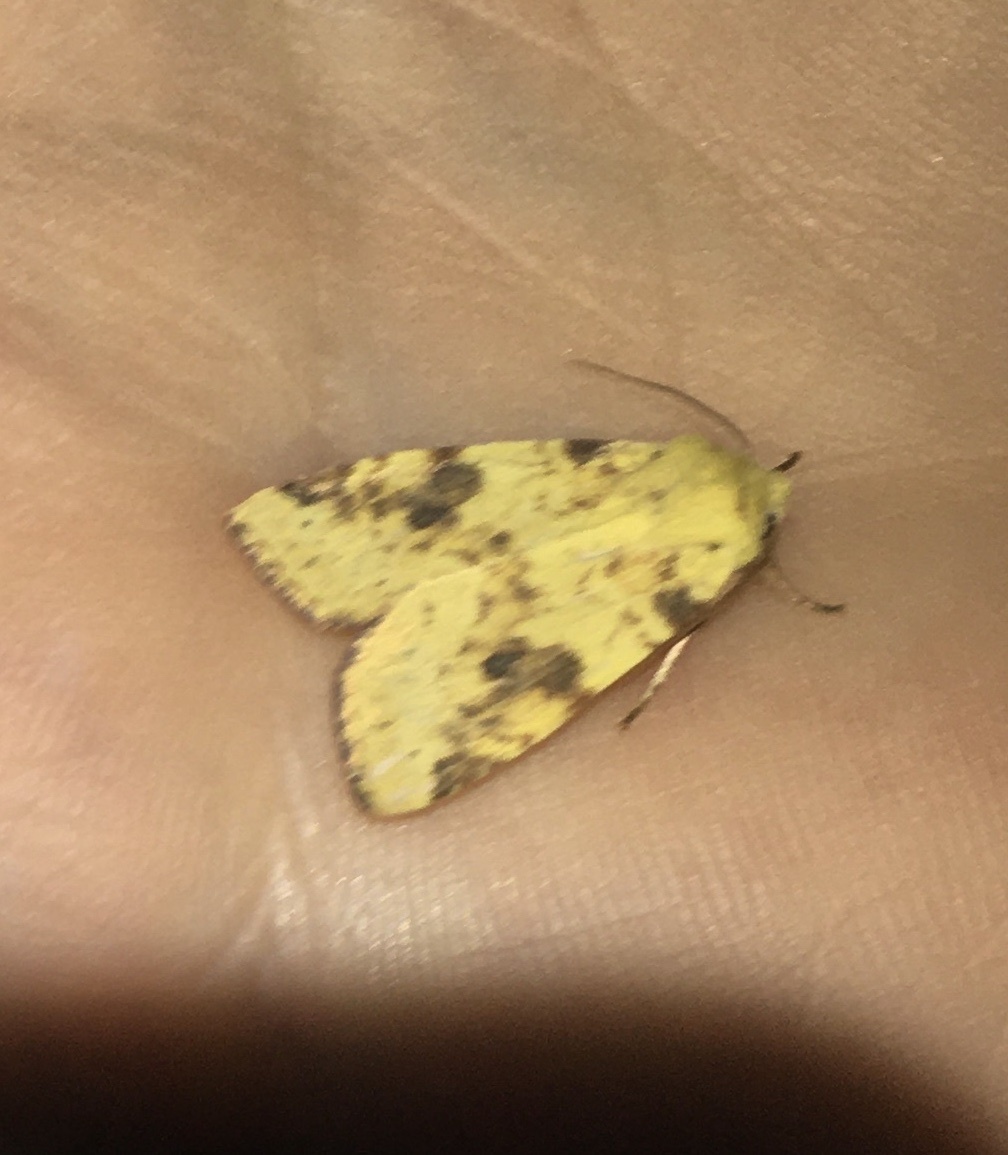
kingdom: Animalia
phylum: Arthropoda
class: Insecta
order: Lepidoptera
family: Noctuidae
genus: Xanthia
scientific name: Xanthia icteritia
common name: The sallow
